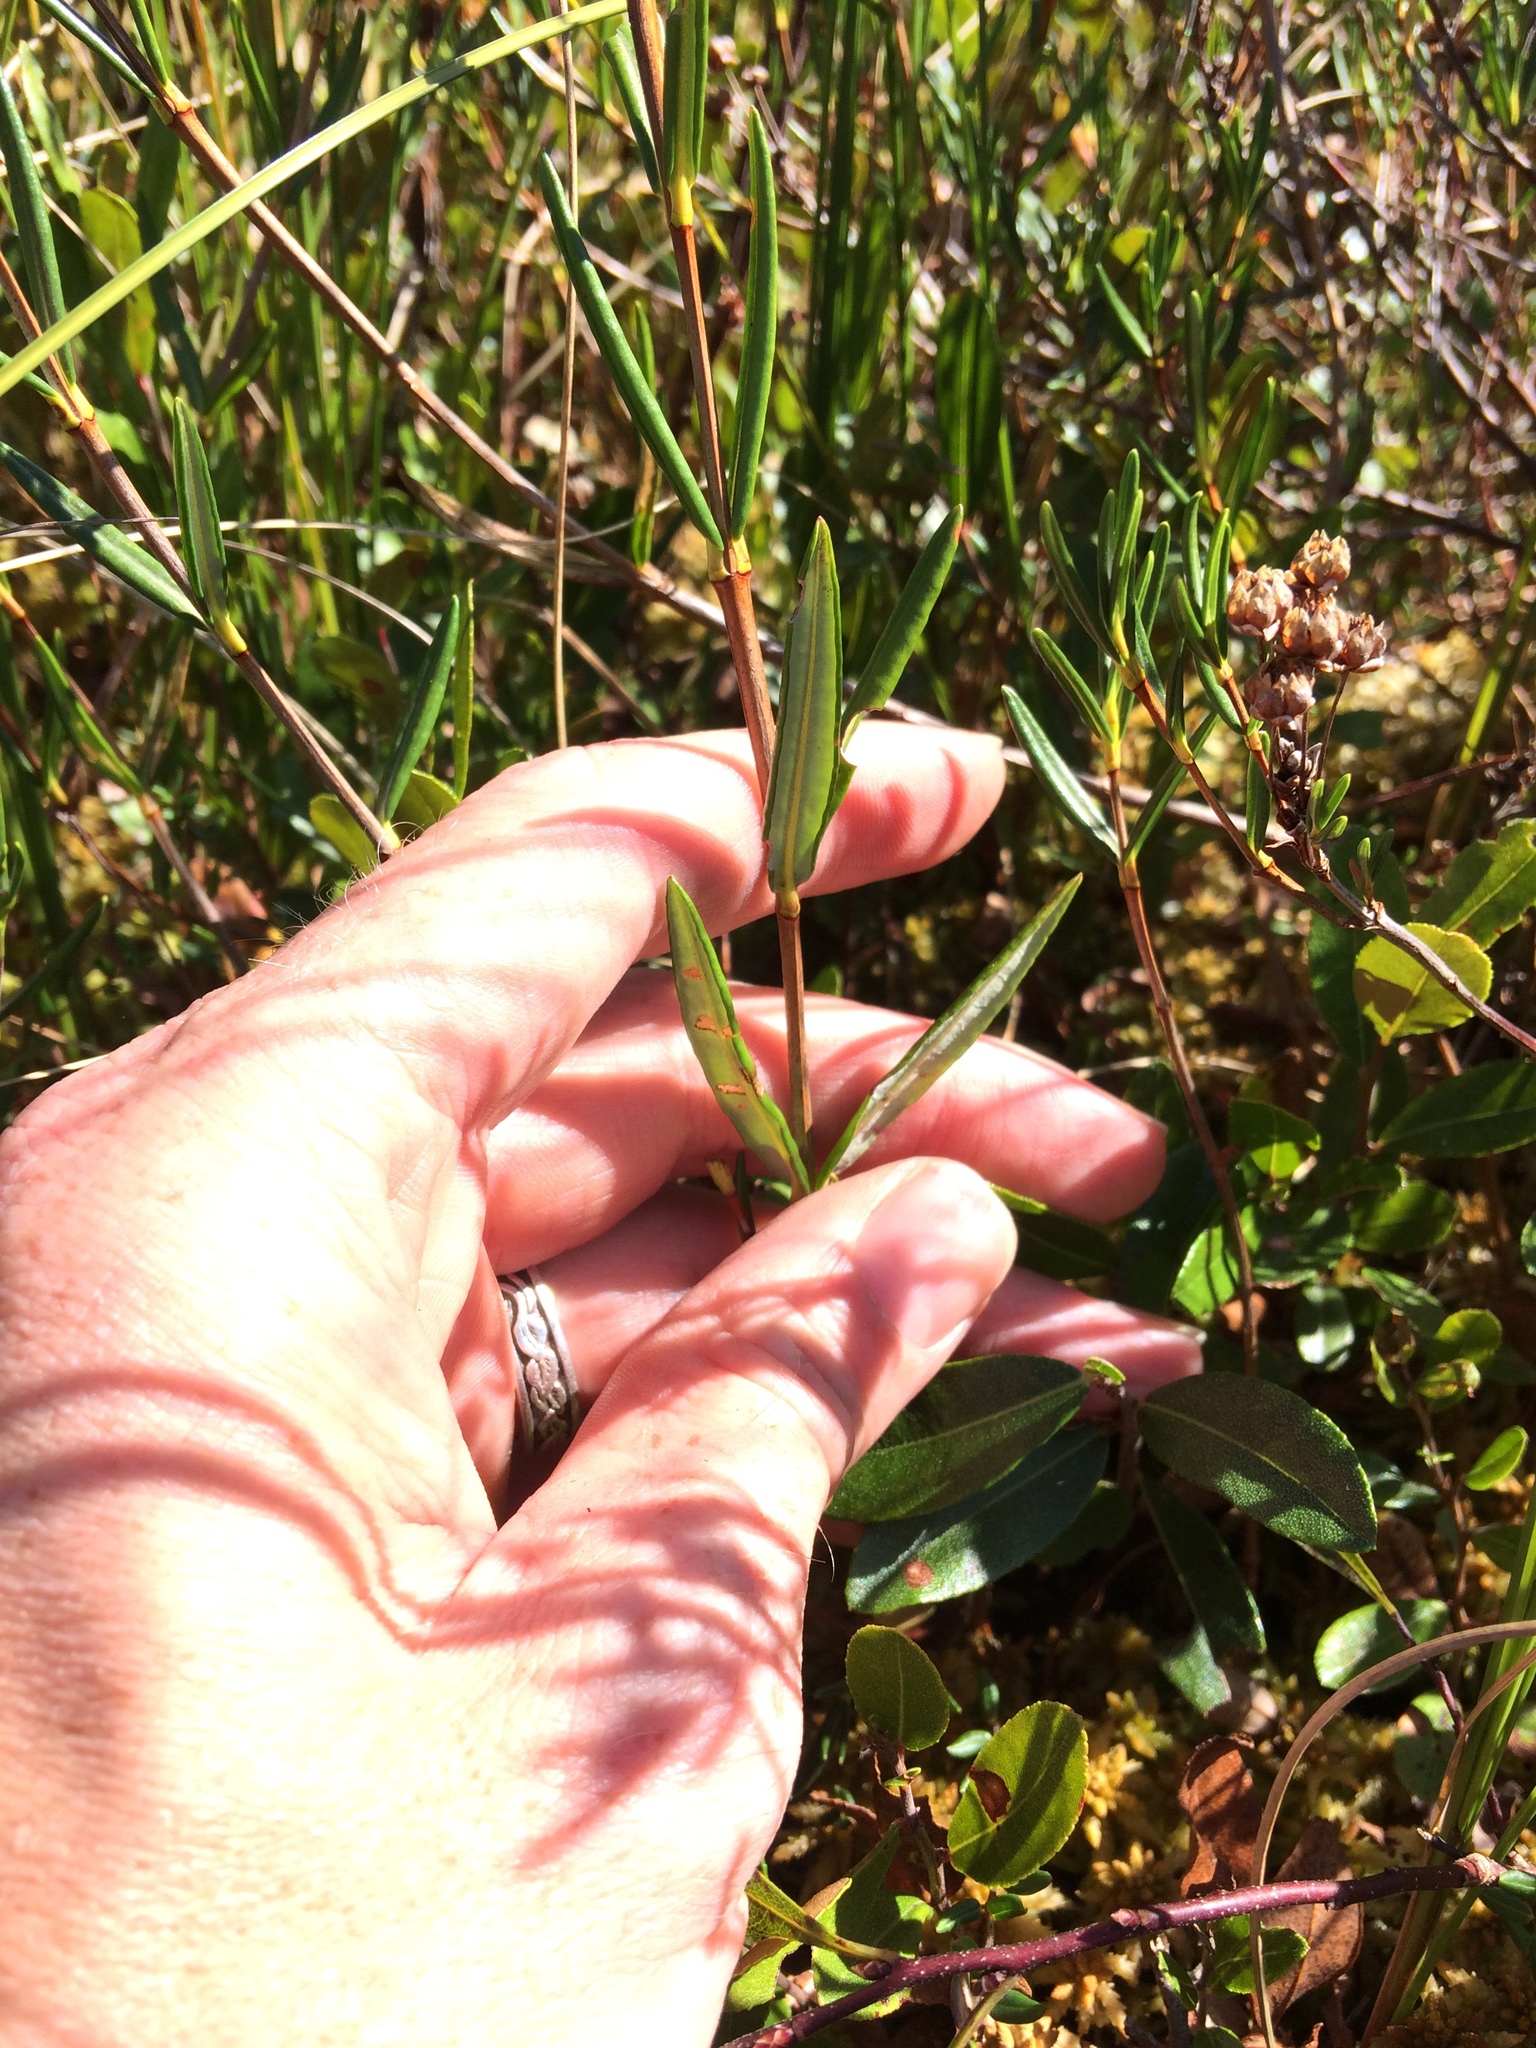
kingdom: Plantae
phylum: Tracheophyta
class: Magnoliopsida
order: Ericales
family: Ericaceae
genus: Kalmia
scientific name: Kalmia polifolia
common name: Bog-laurel
